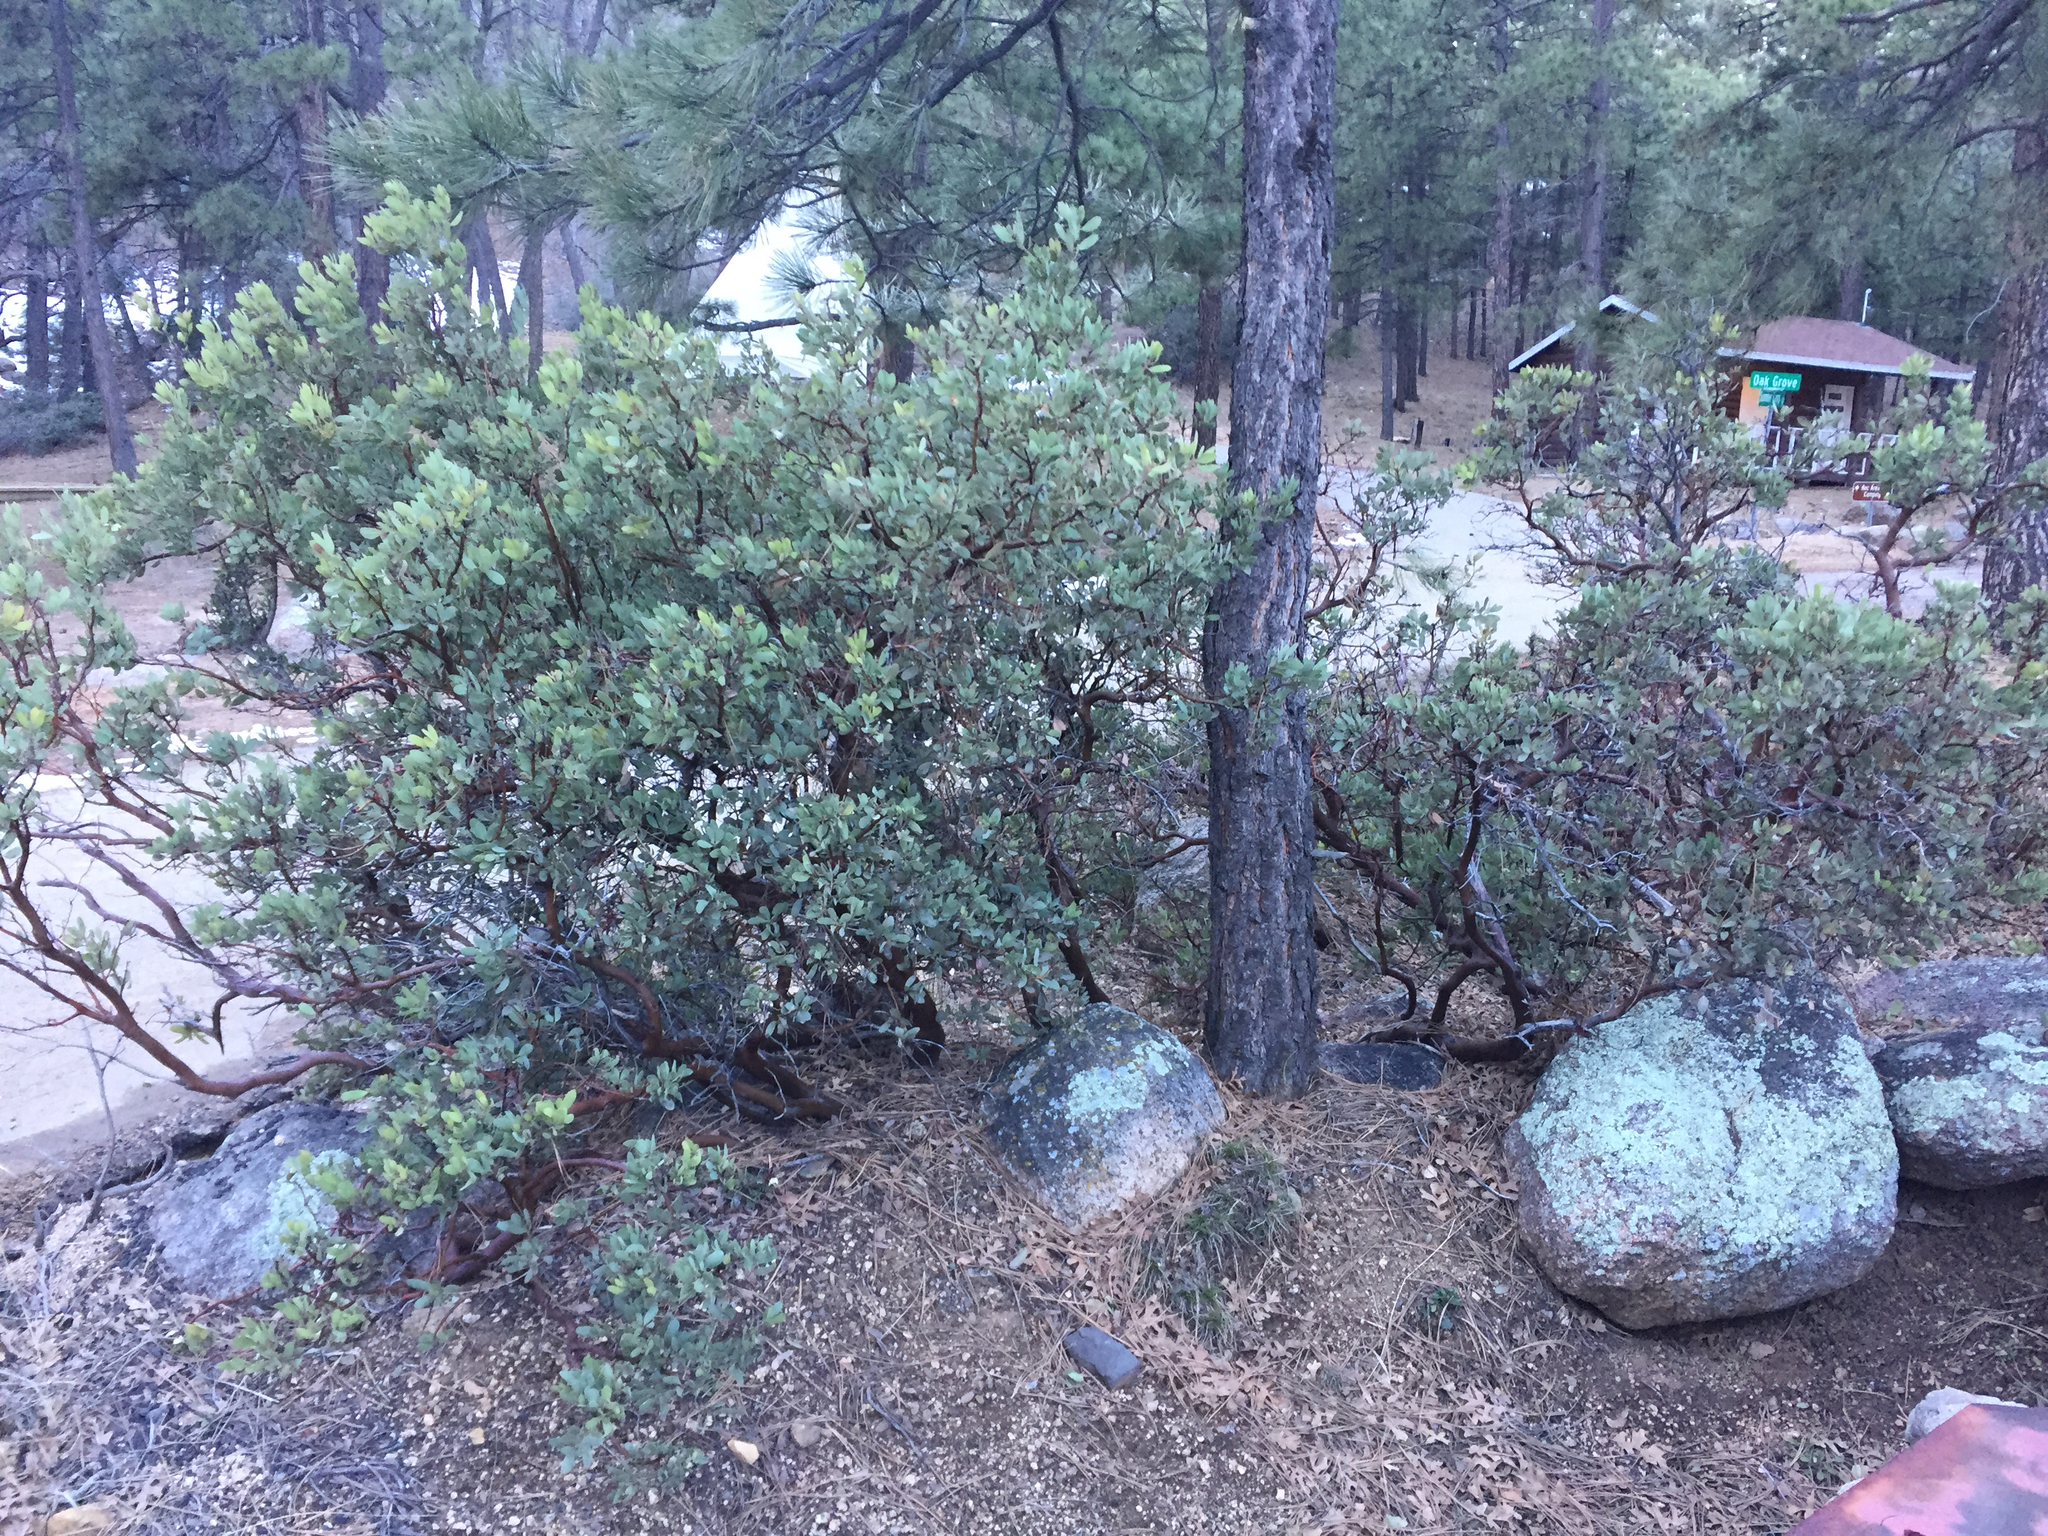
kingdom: Plantae
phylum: Tracheophyta
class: Magnoliopsida
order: Ericales
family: Ericaceae
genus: Arctostaphylos
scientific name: Arctostaphylos pungens
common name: Mexican manzanita
